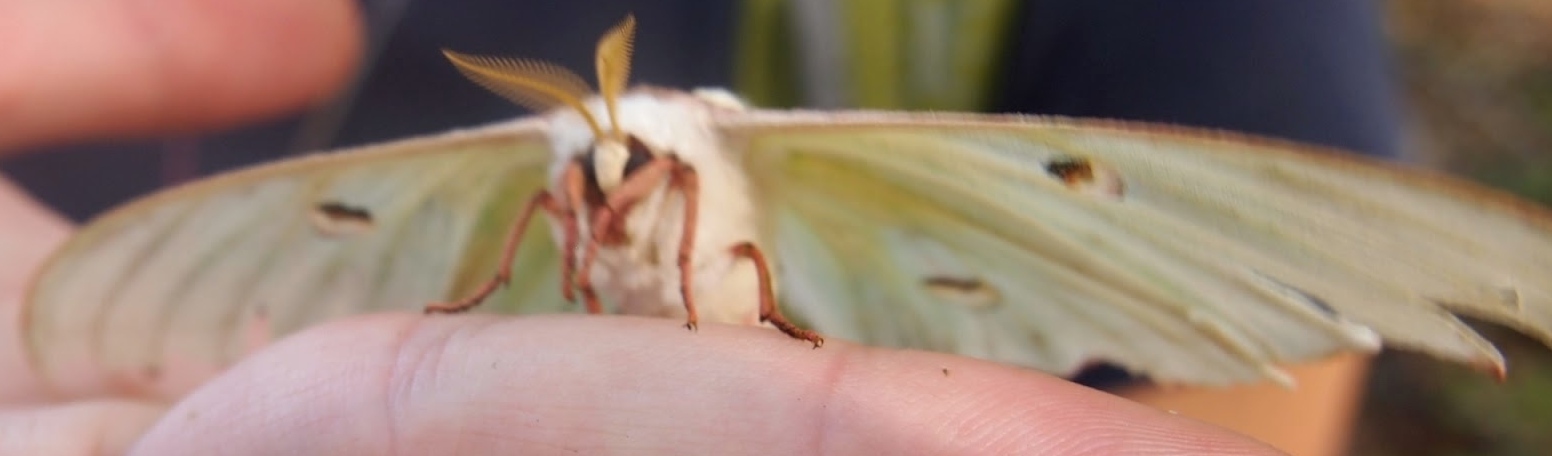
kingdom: Animalia
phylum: Arthropoda
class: Insecta
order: Lepidoptera
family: Saturniidae
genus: Actias
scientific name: Actias luna
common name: Luna moth
